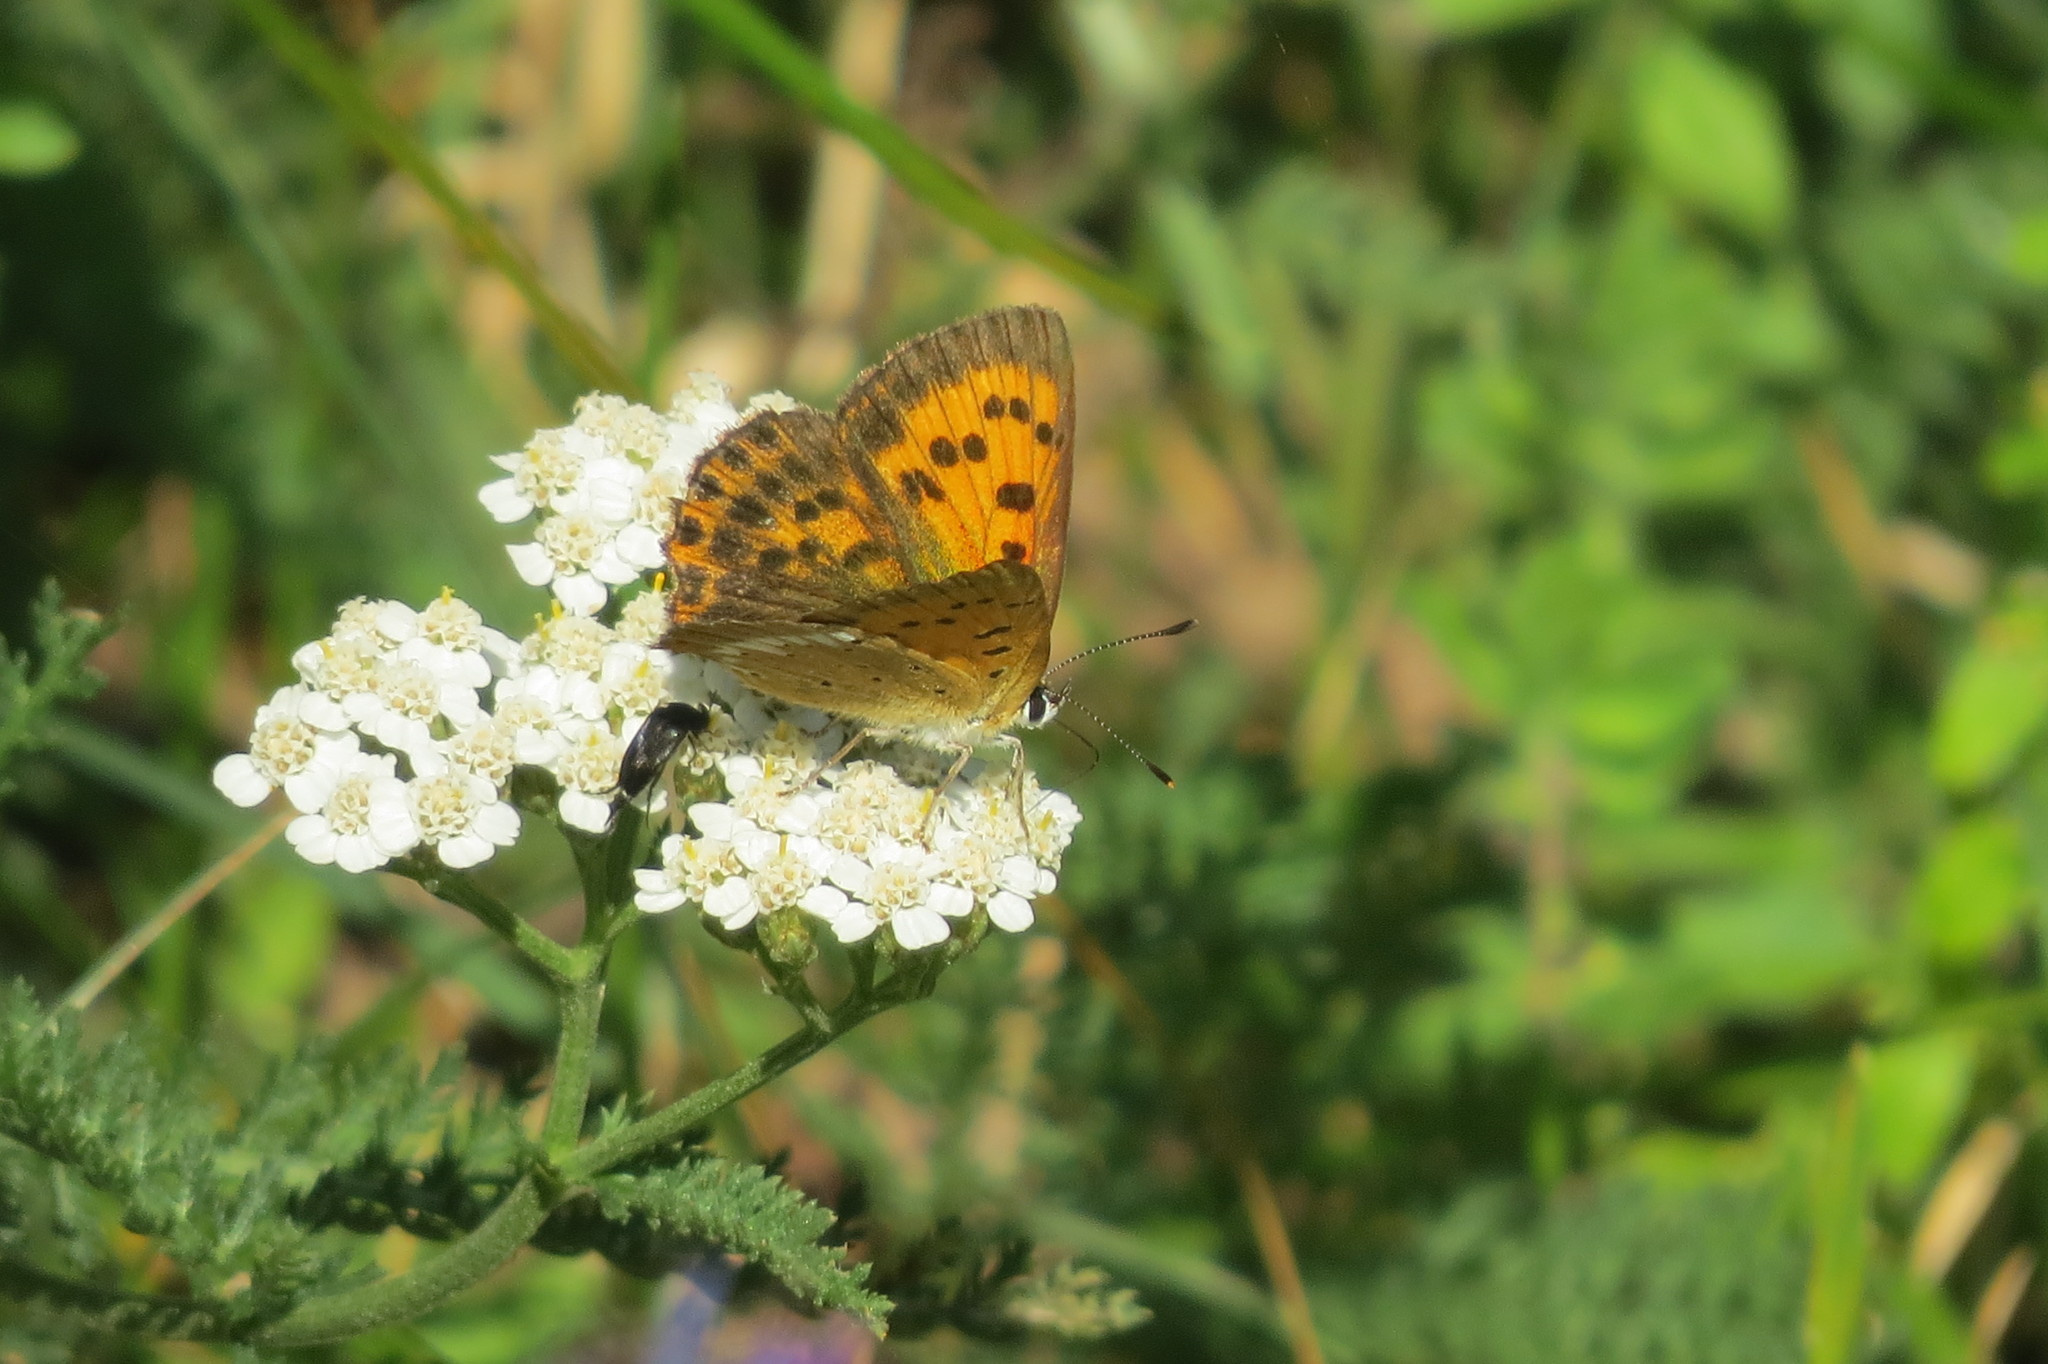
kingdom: Animalia
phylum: Arthropoda
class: Insecta
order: Lepidoptera
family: Lycaenidae
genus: Lycaena
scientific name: Lycaena virgaureae
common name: Scarce copper
